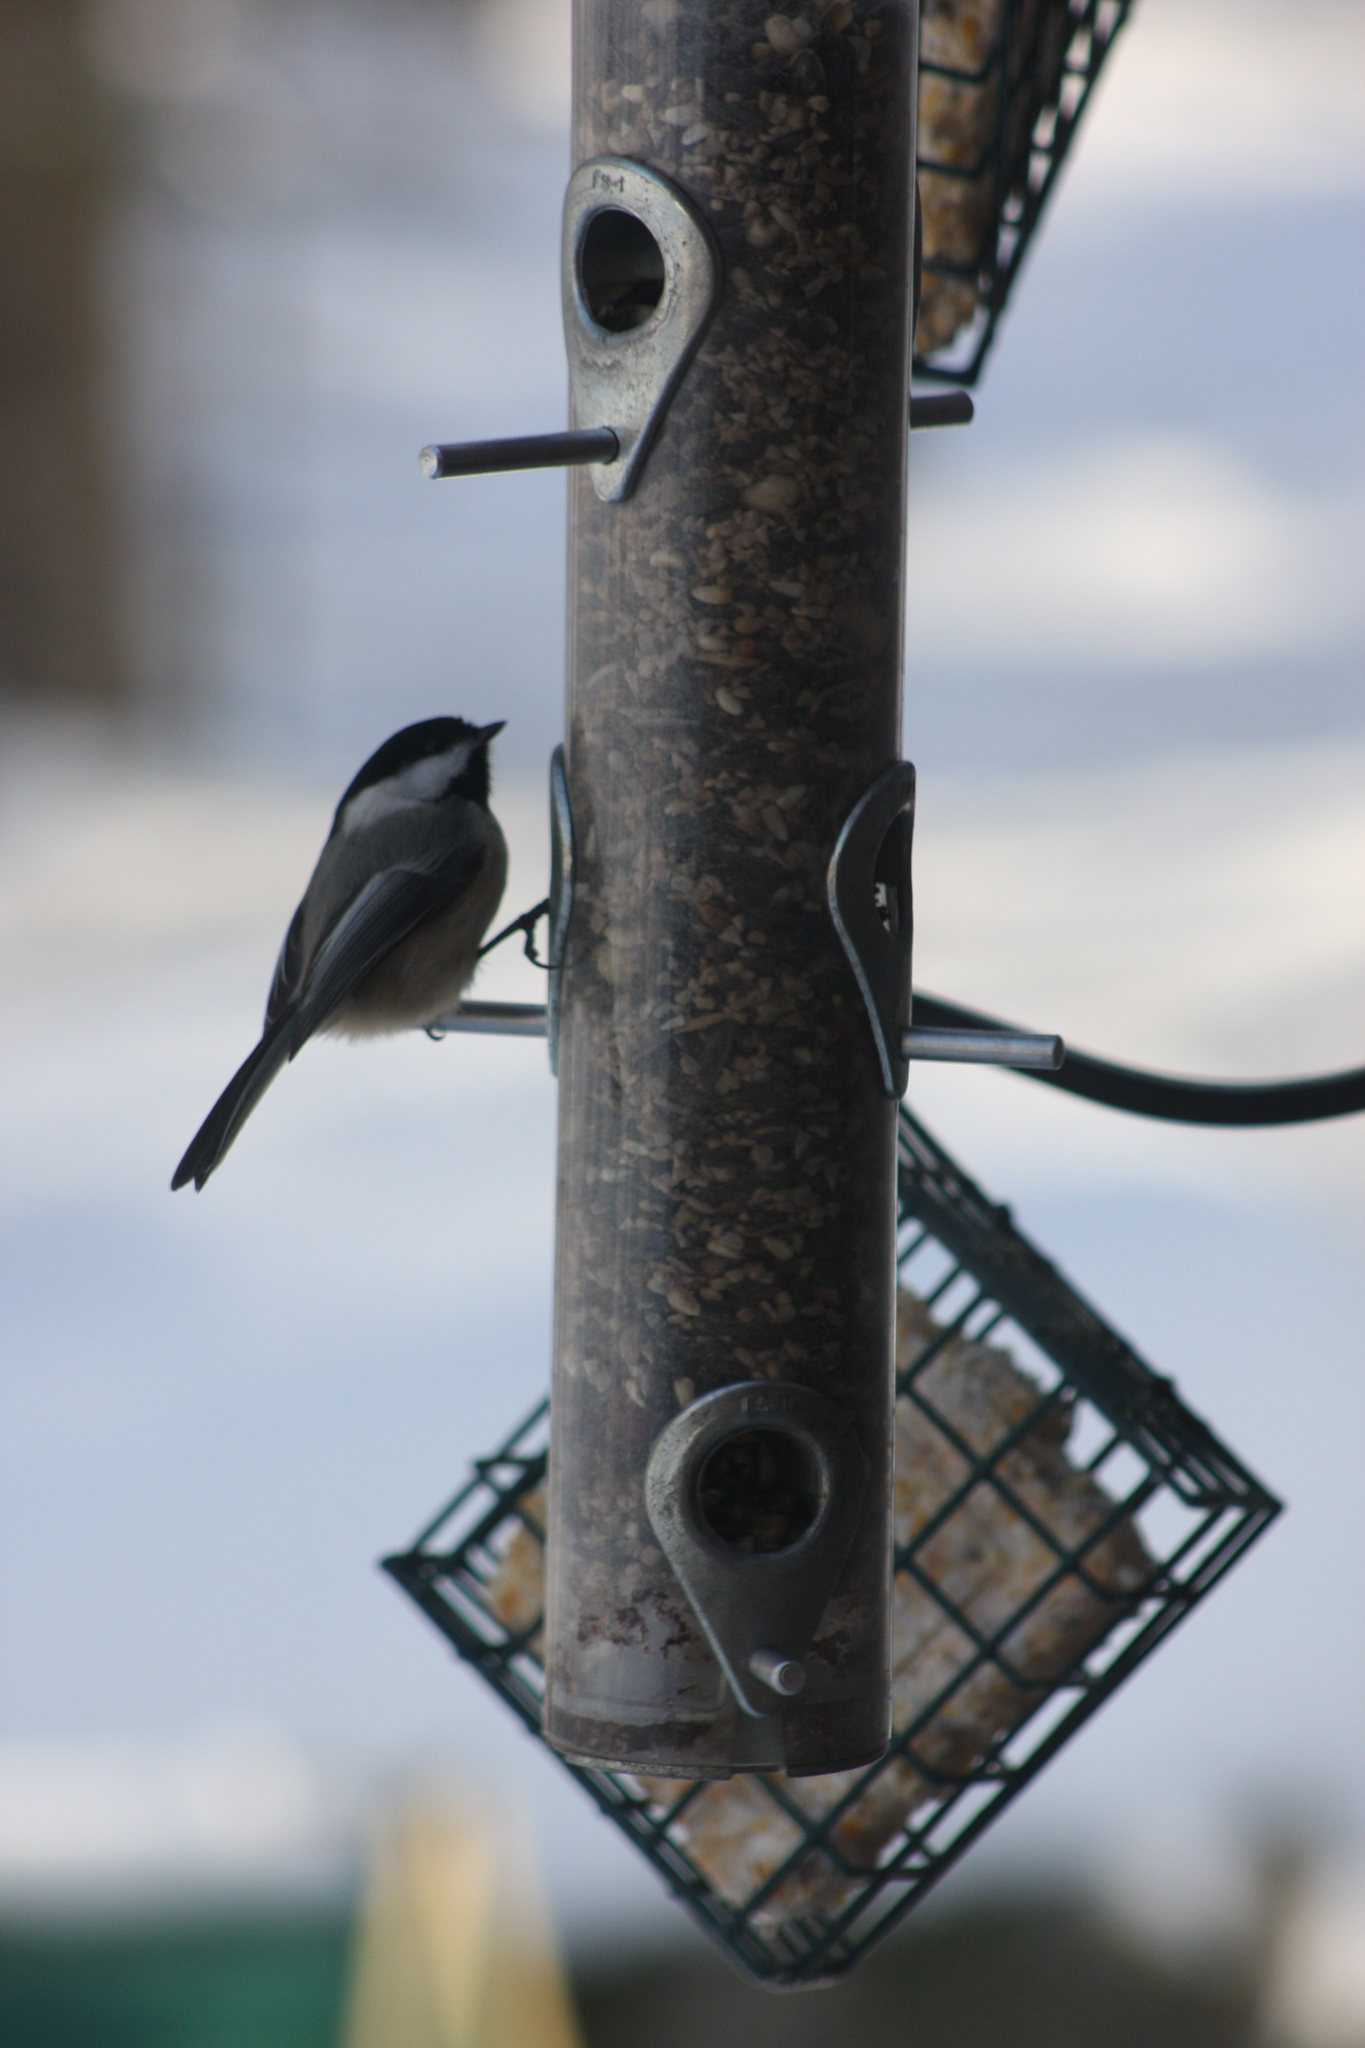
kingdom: Animalia
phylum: Chordata
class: Aves
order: Passeriformes
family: Paridae
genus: Poecile
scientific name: Poecile atricapillus
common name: Black-capped chickadee
